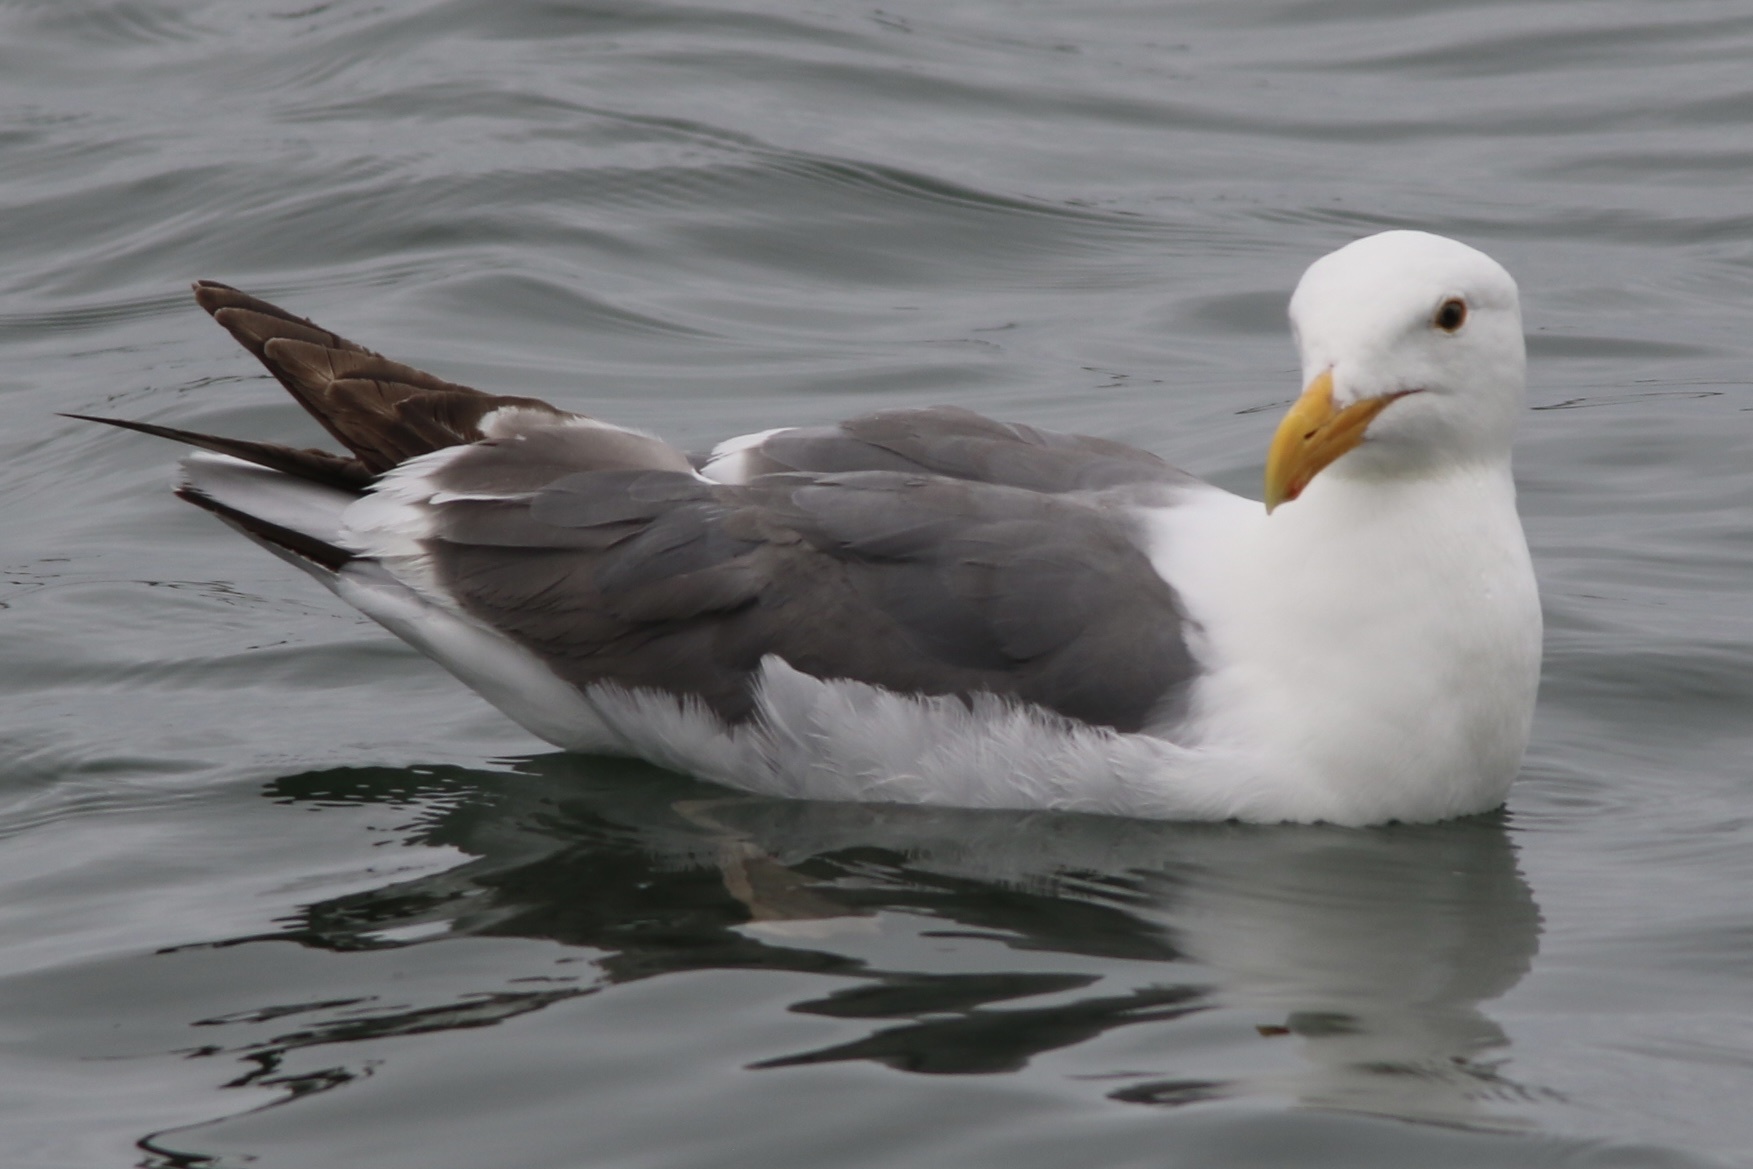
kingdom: Animalia
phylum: Chordata
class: Aves
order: Charadriiformes
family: Laridae
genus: Larus
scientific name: Larus occidentalis
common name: Western gull
